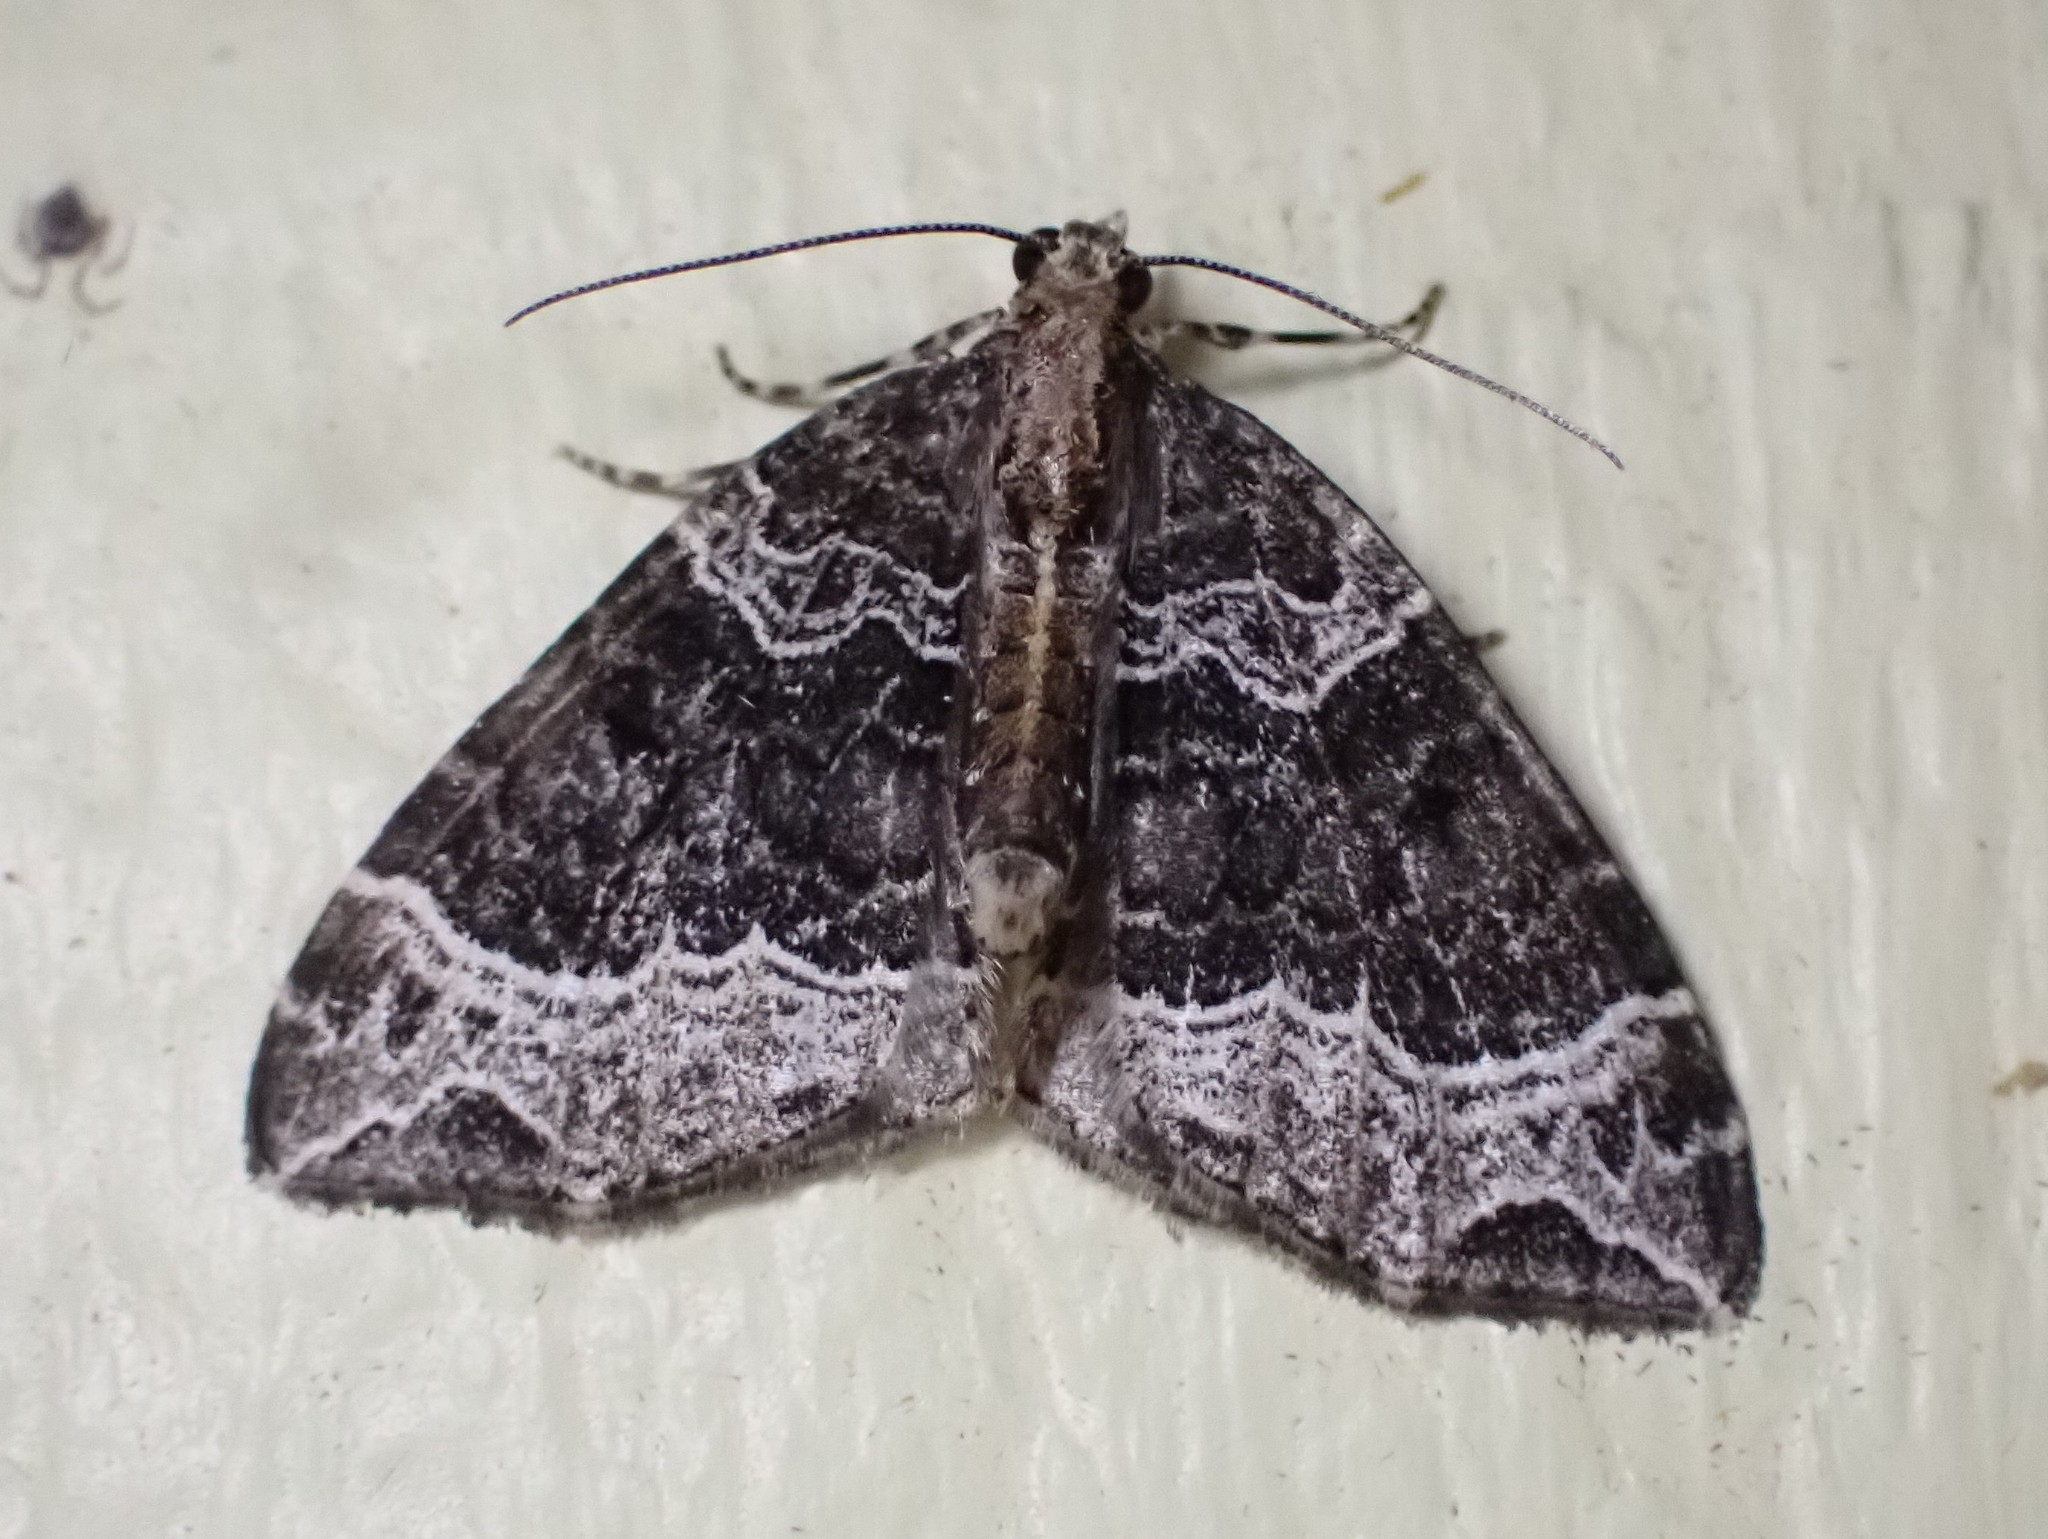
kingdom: Animalia
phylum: Arthropoda
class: Insecta
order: Lepidoptera
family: Geometridae
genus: Ecliptopera
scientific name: Ecliptopera silaceata
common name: Small phoenix
